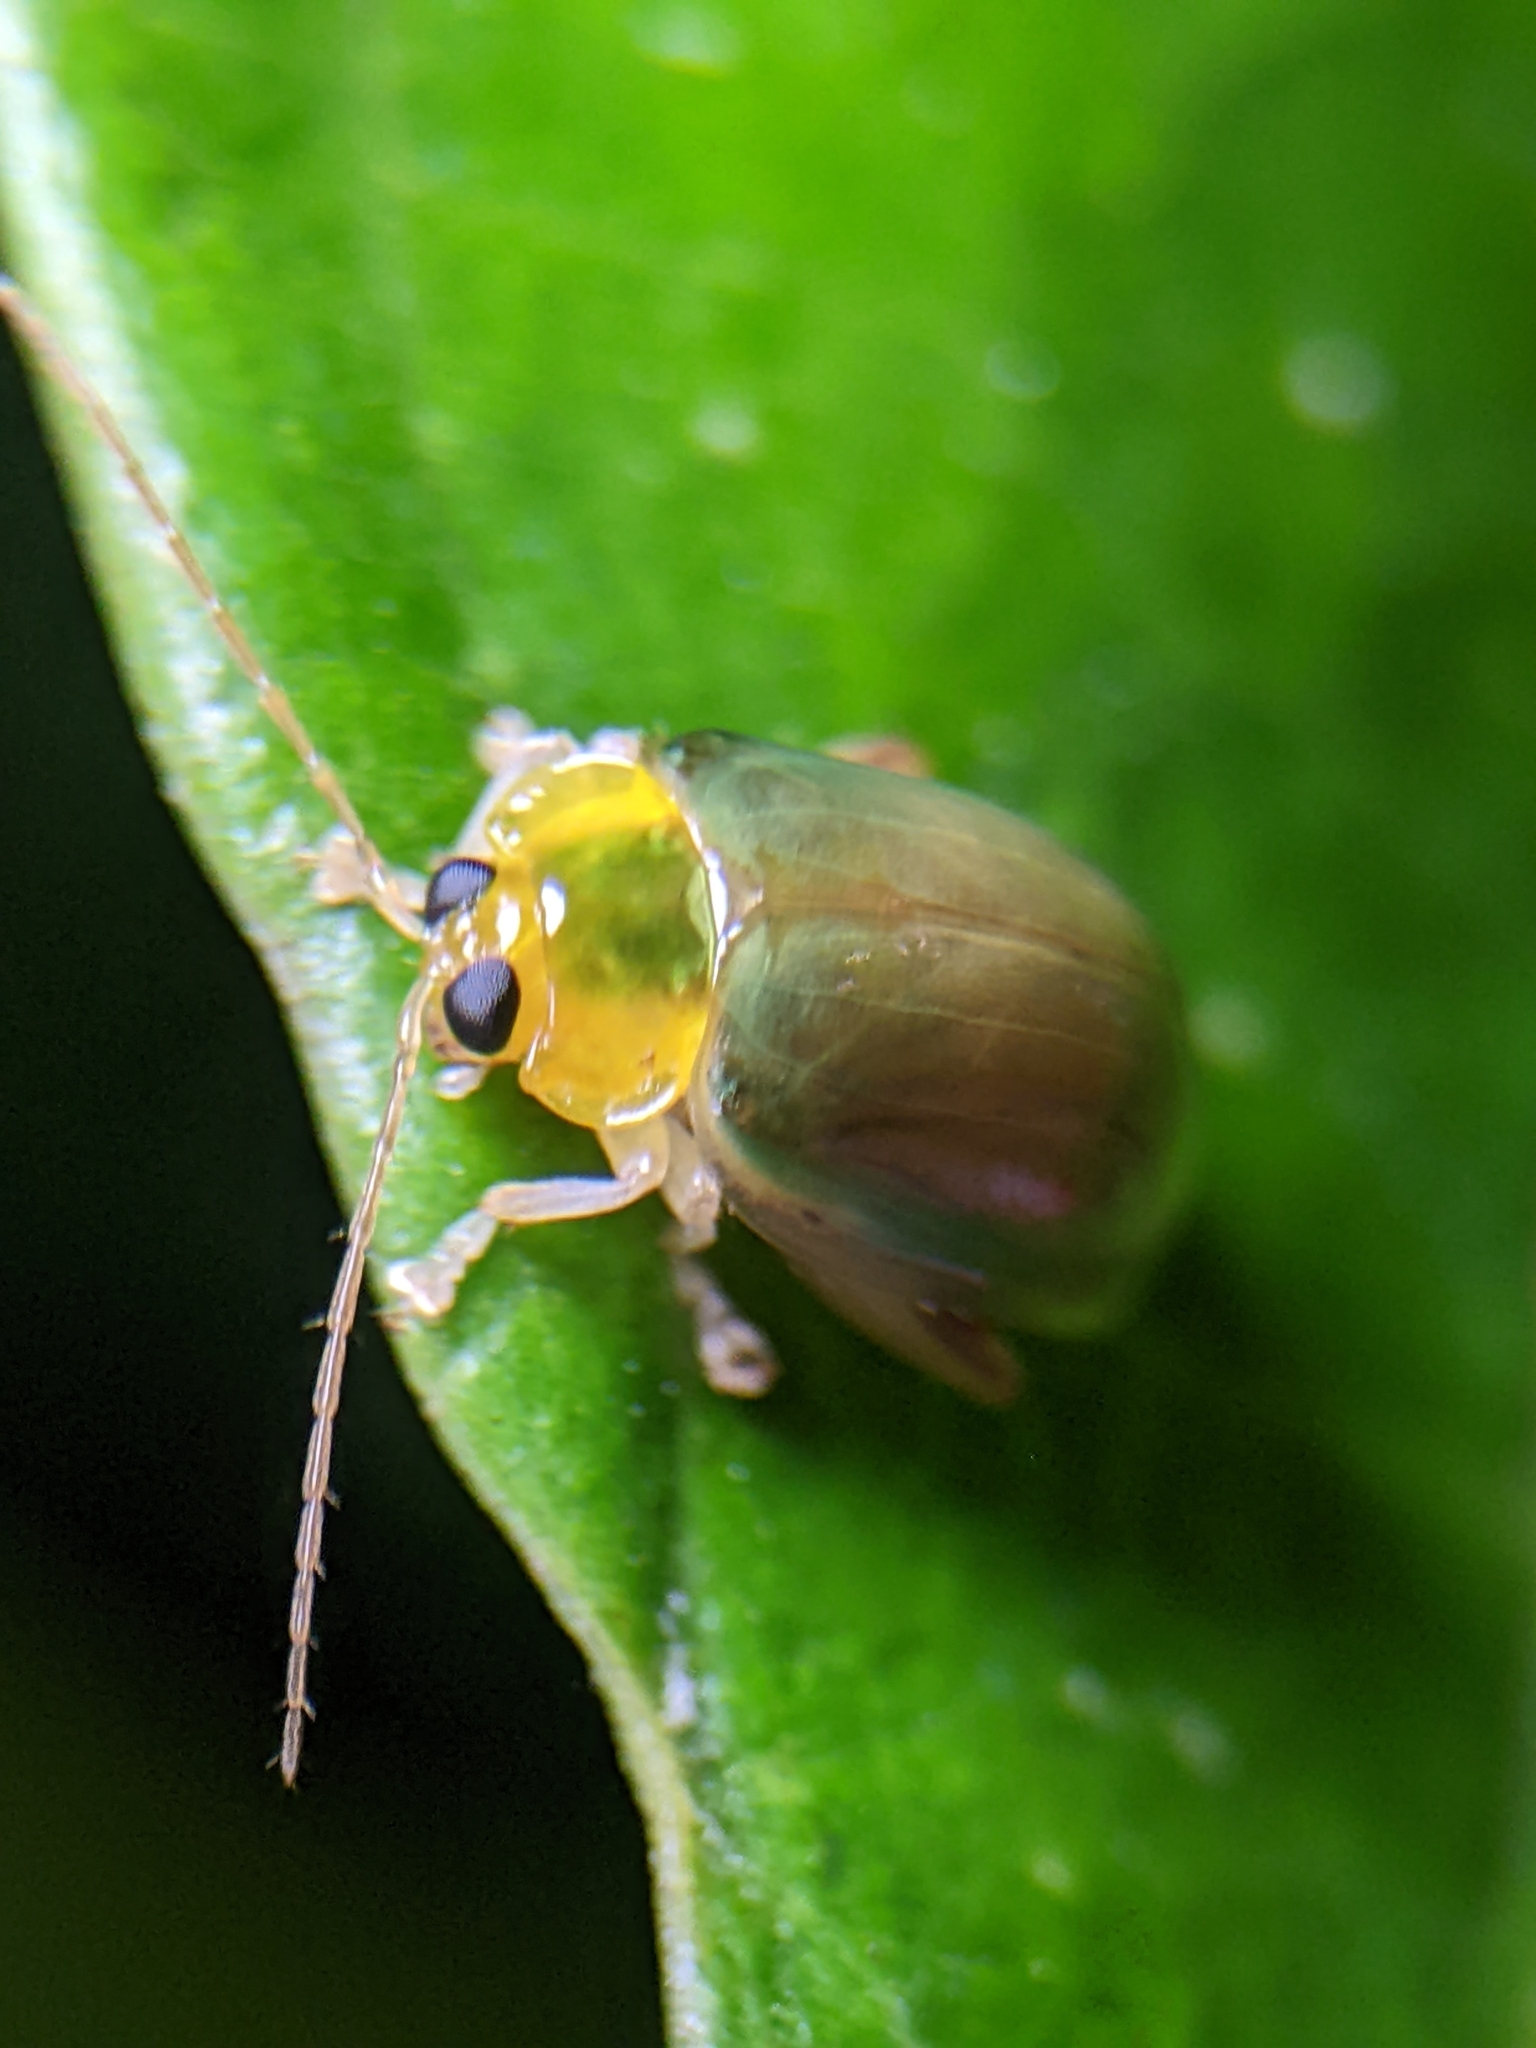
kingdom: Animalia
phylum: Arthropoda
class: Insecta
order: Coleoptera
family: Chrysomelidae
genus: Hemipyxis
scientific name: Hemipyxis
